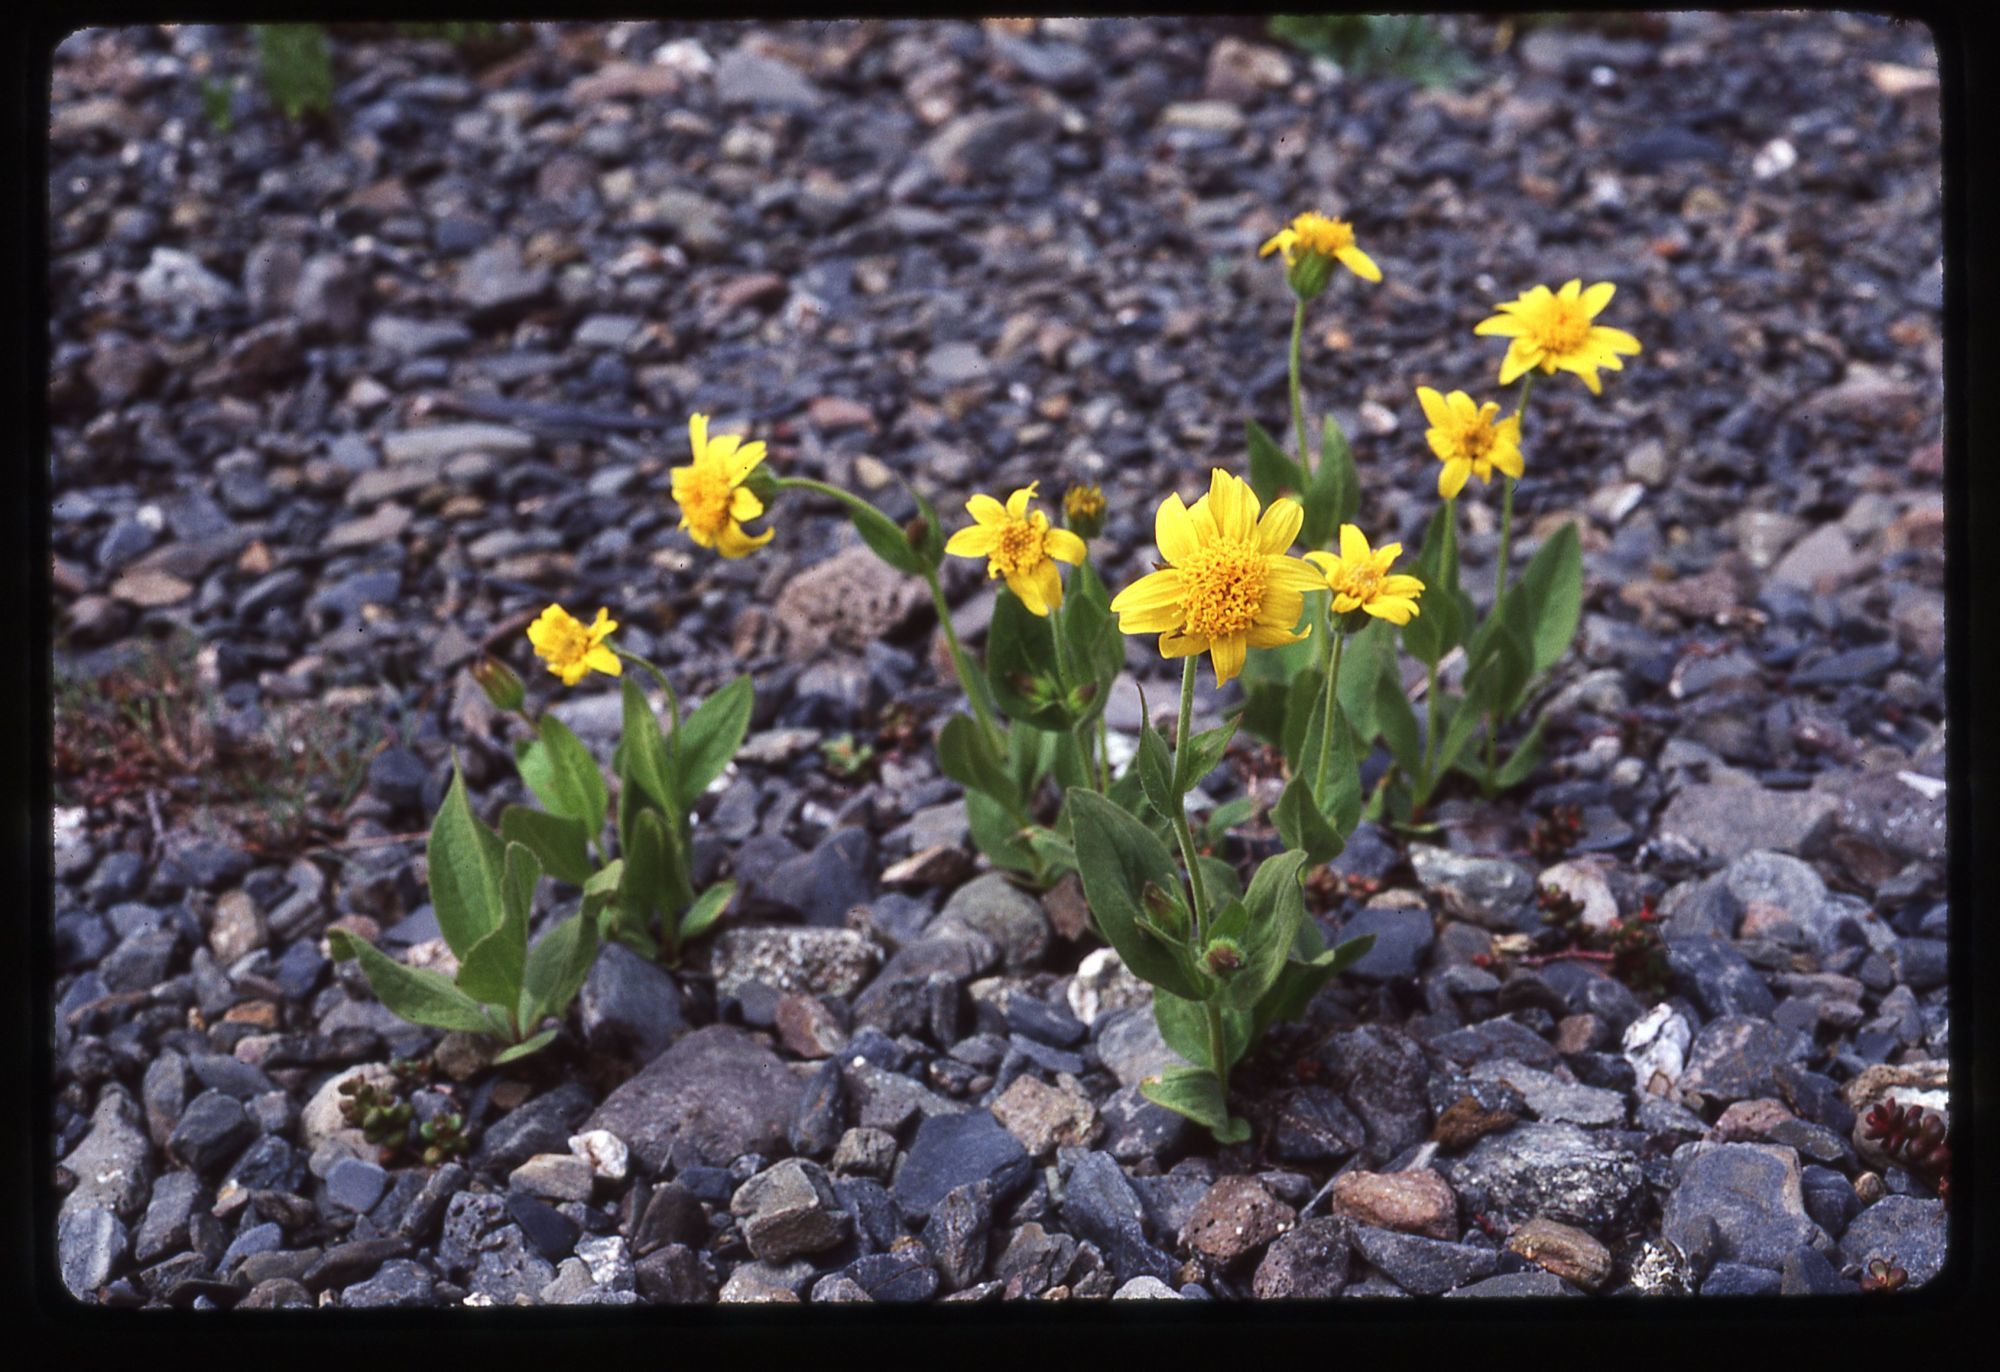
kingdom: Plantae
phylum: Tracheophyta
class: Magnoliopsida
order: Asterales
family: Asteraceae
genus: Arnica
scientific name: Arnica nevadensis
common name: Nevada arnica
